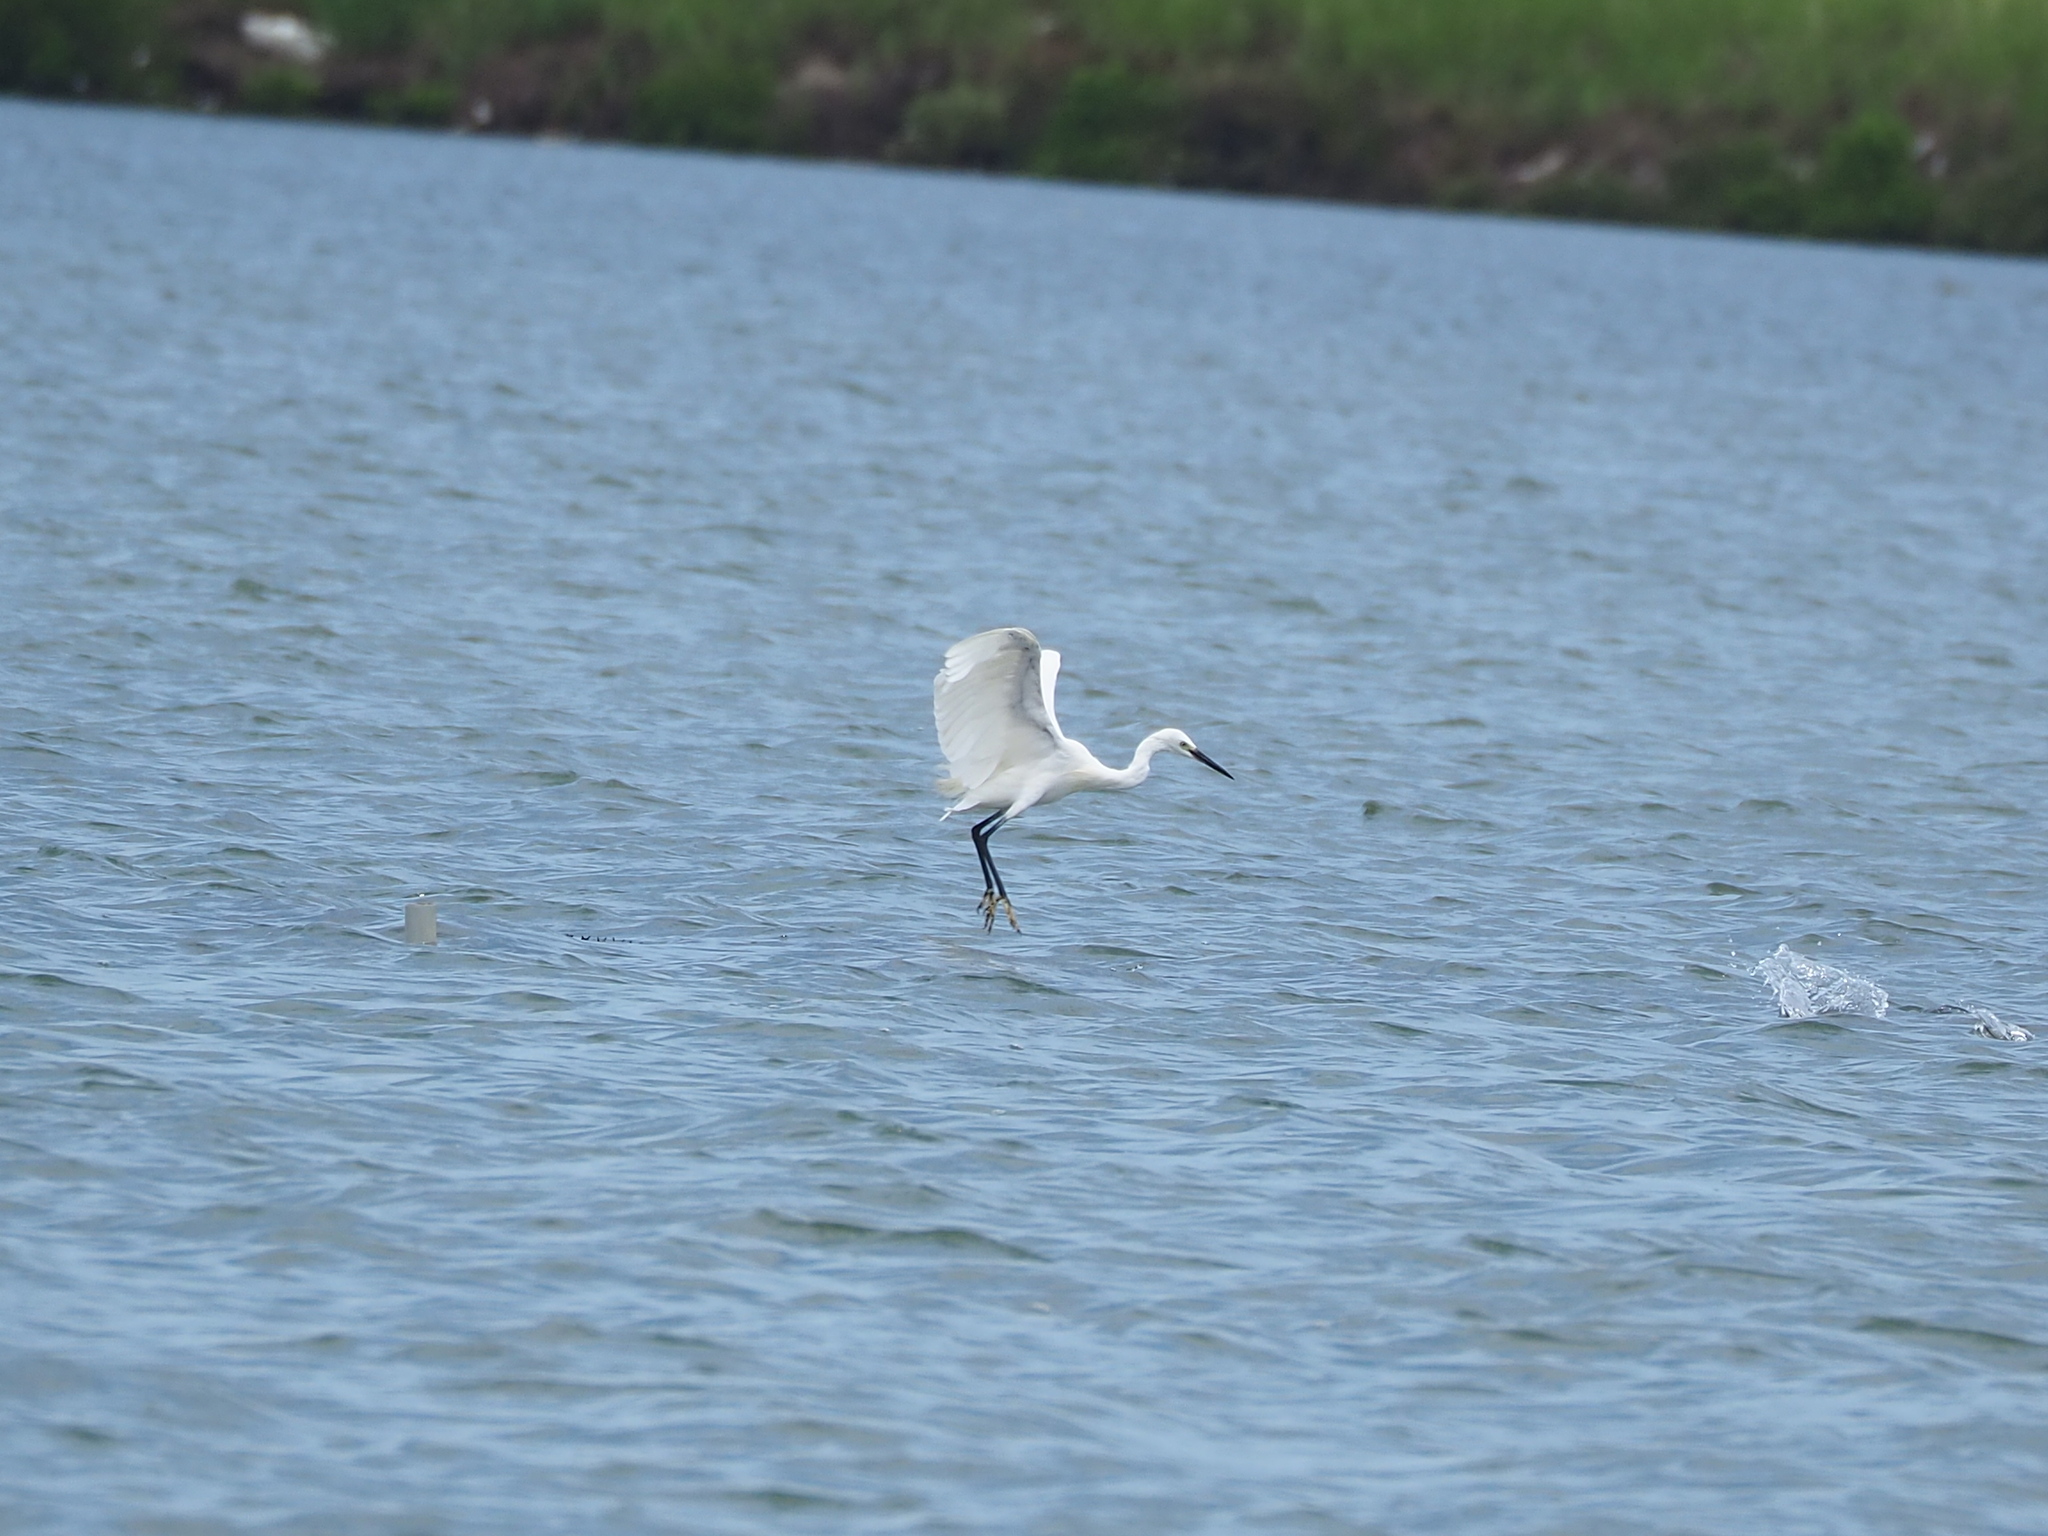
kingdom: Animalia
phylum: Chordata
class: Aves
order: Pelecaniformes
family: Ardeidae
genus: Egretta
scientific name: Egretta garzetta
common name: Little egret
